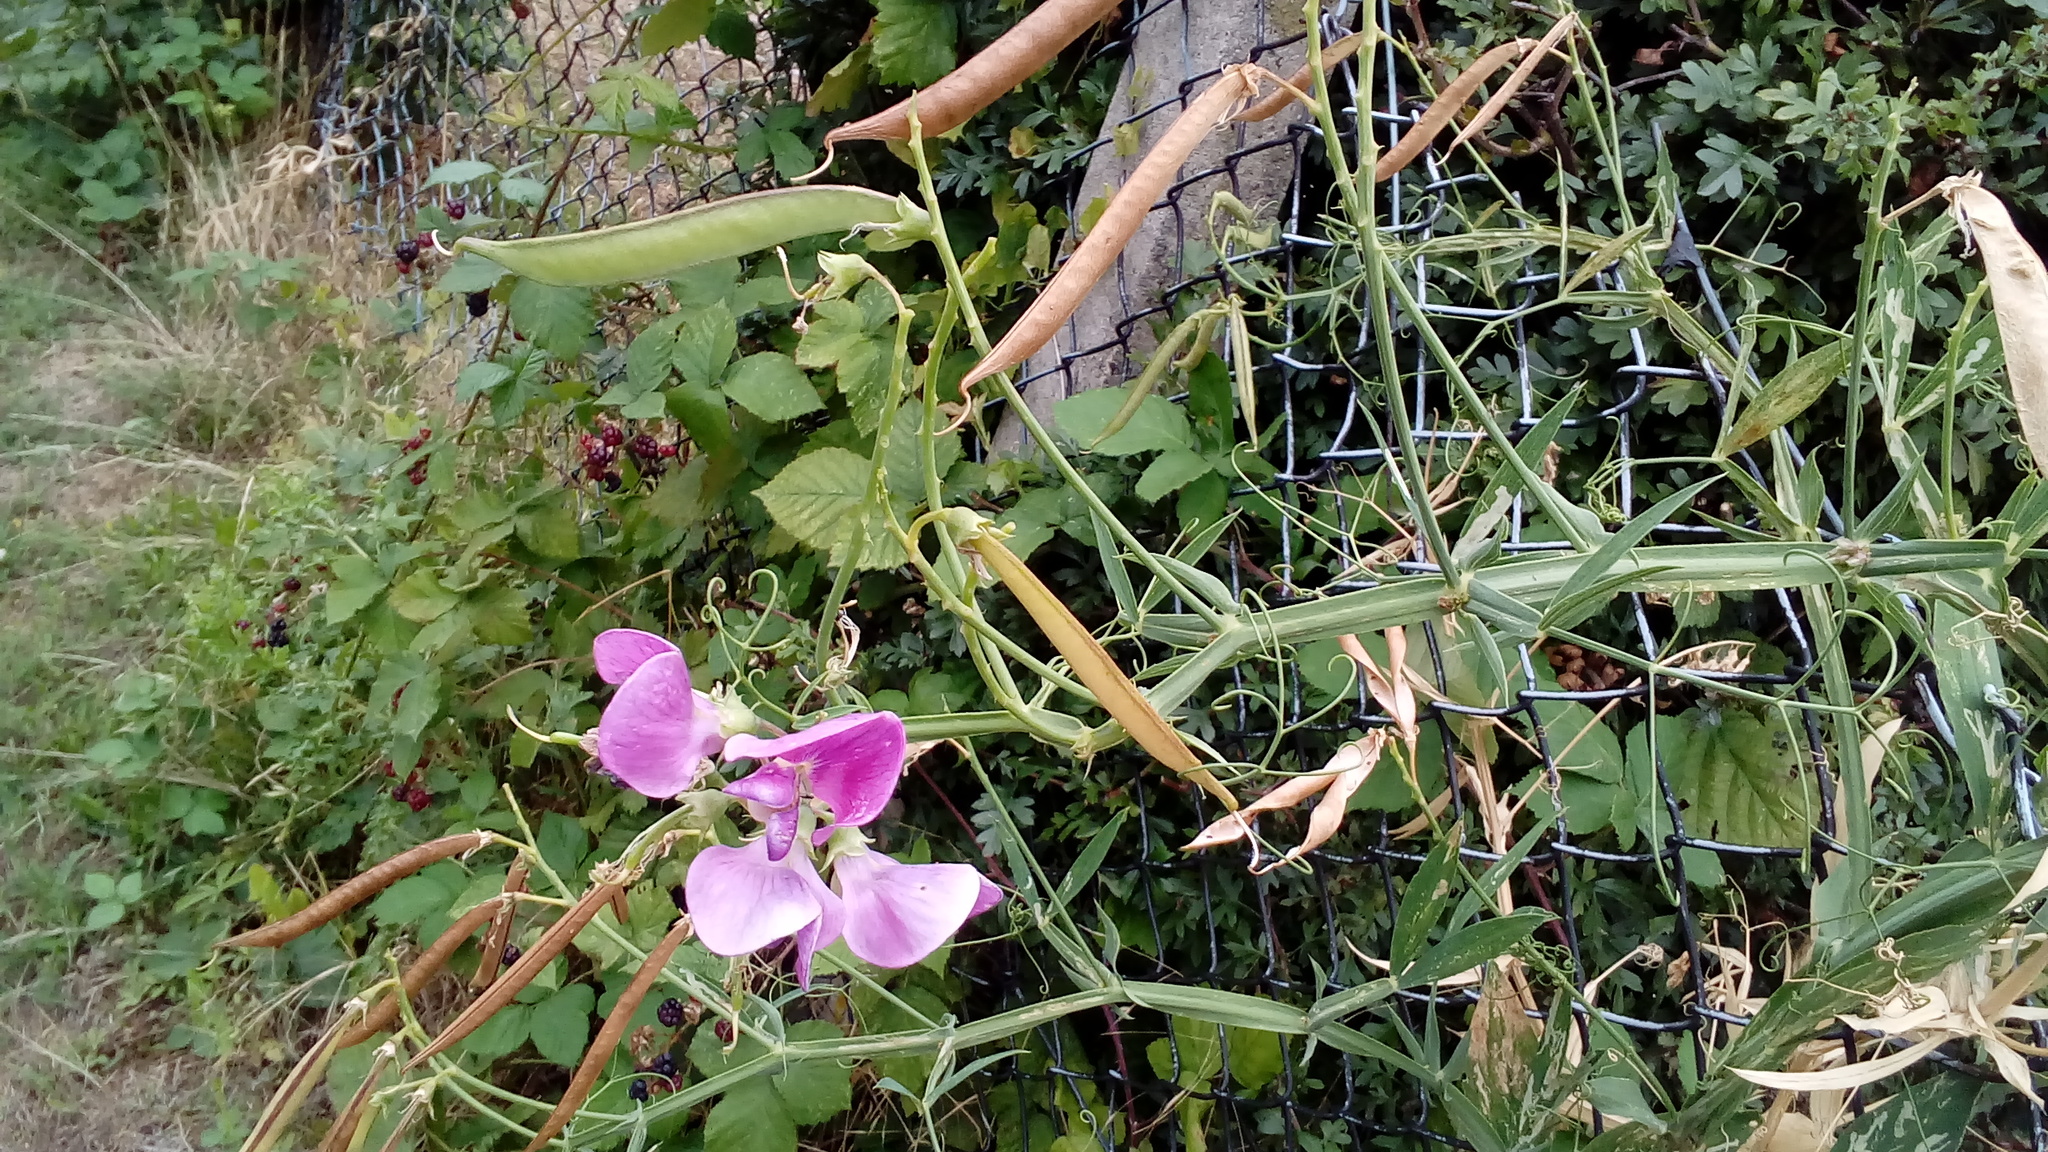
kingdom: Plantae
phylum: Tracheophyta
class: Magnoliopsida
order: Fabales
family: Fabaceae
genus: Lathyrus
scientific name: Lathyrus latifolius
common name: Perennial pea
